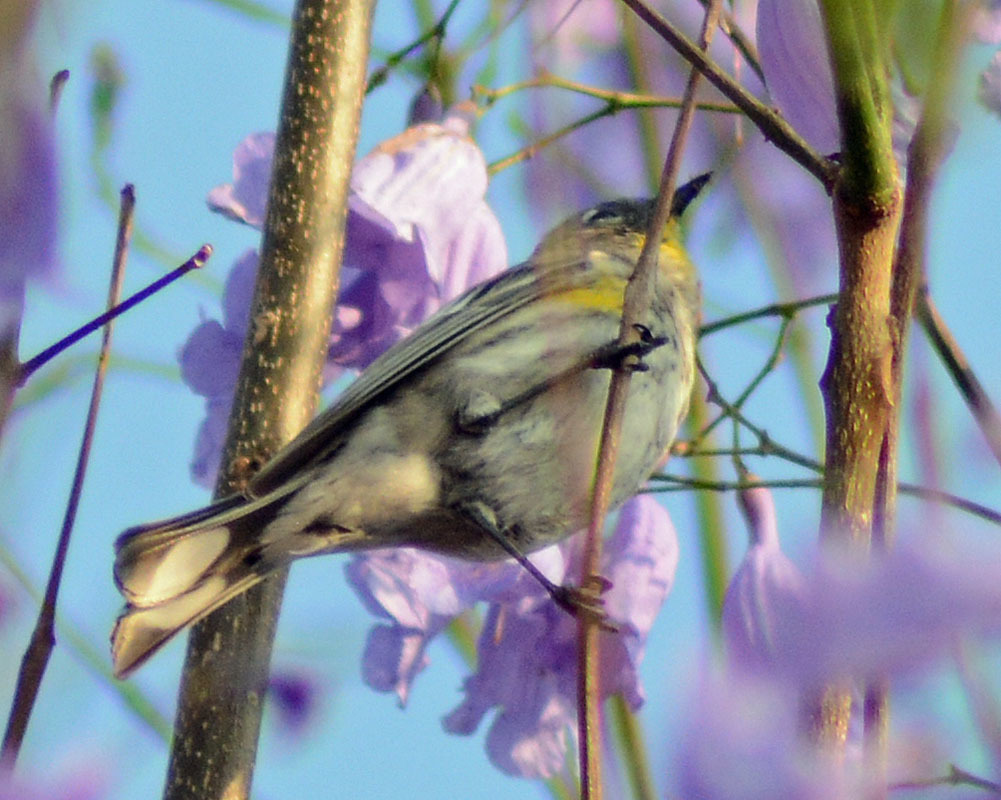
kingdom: Animalia
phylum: Chordata
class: Aves
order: Passeriformes
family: Parulidae
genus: Setophaga
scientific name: Setophaga coronata
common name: Myrtle warbler
